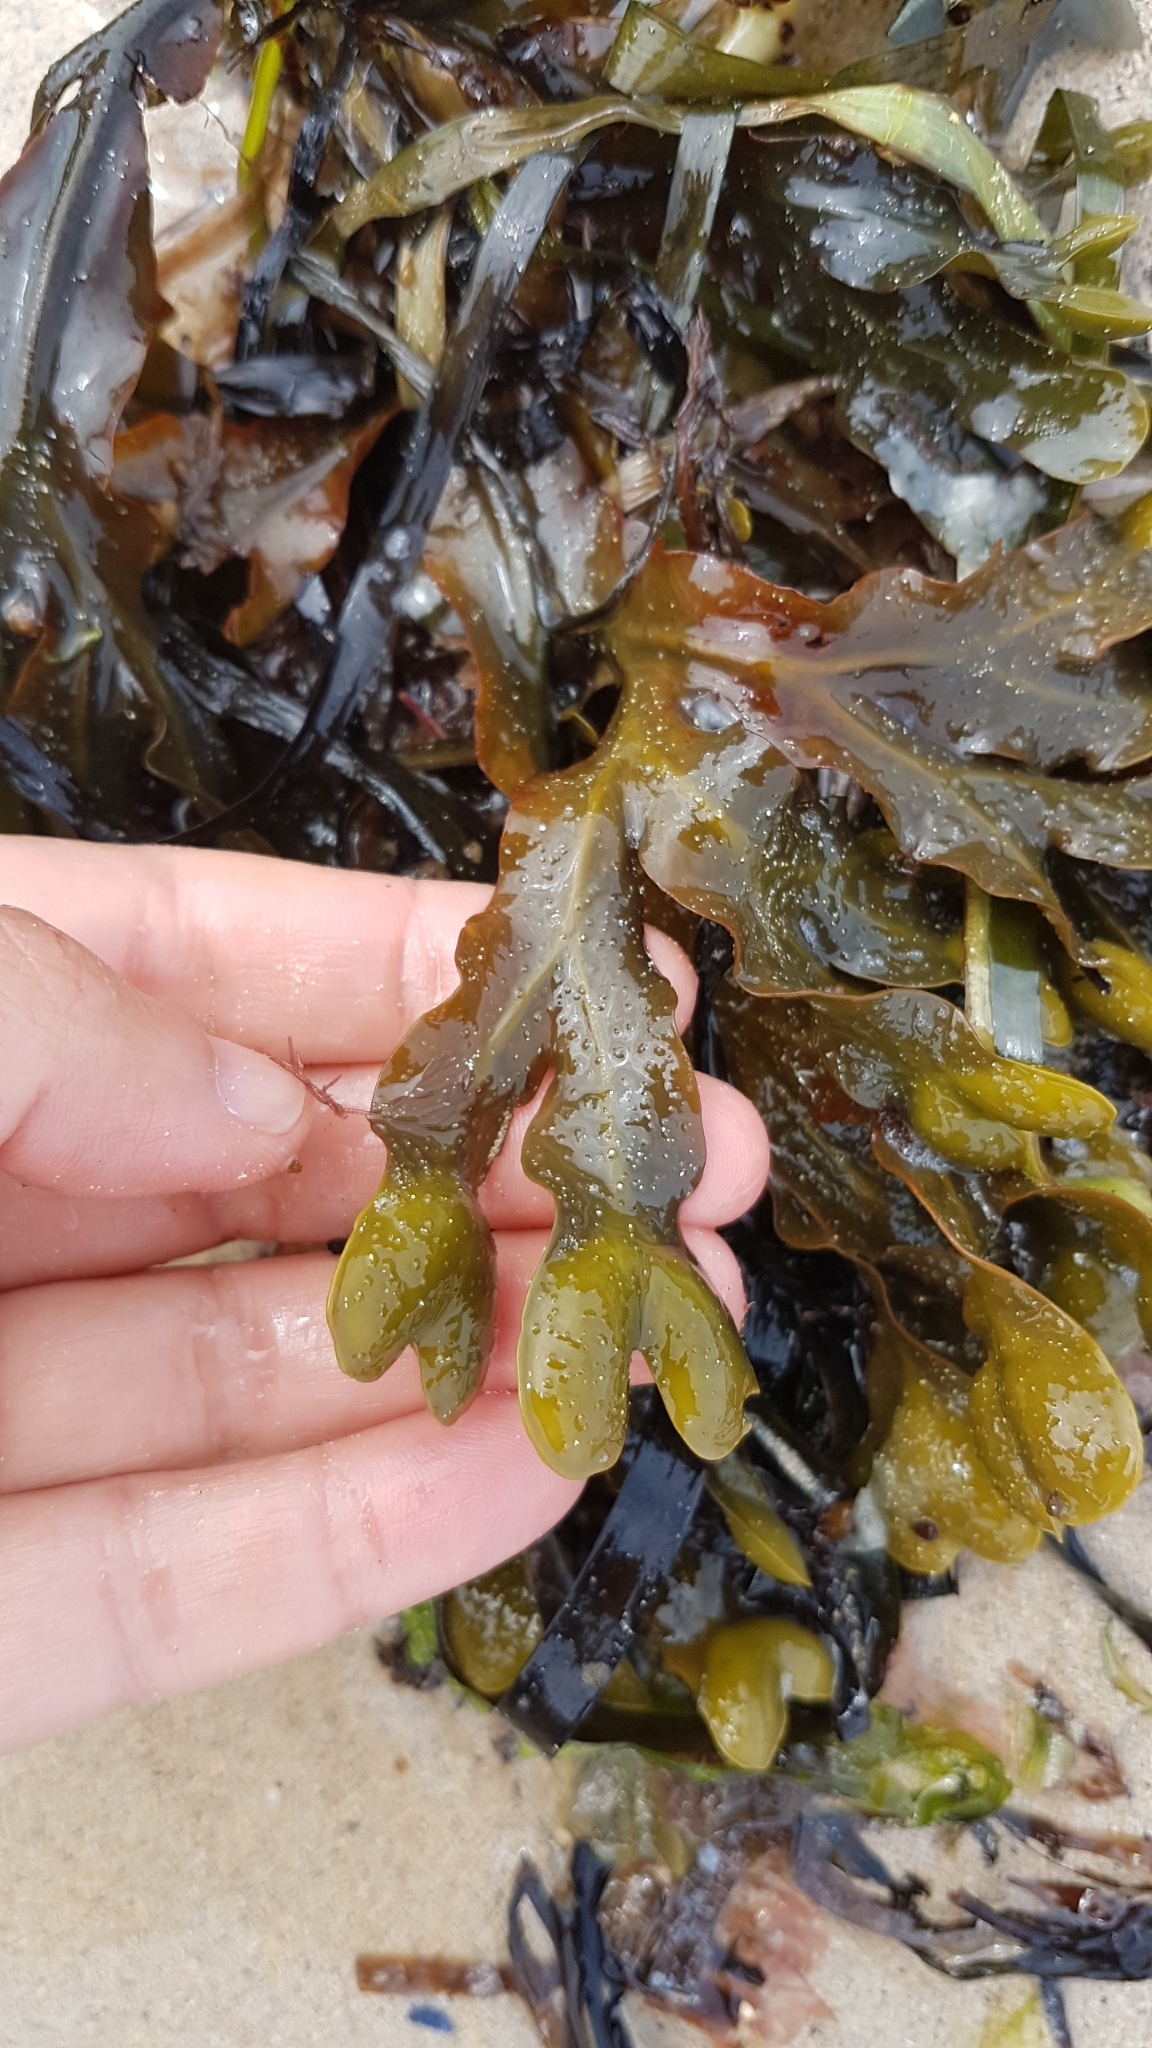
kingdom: Chromista
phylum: Ochrophyta
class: Phaeophyceae
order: Fucales
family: Fucaceae
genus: Fucus
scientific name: Fucus spiralis
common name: Spiral wrack
